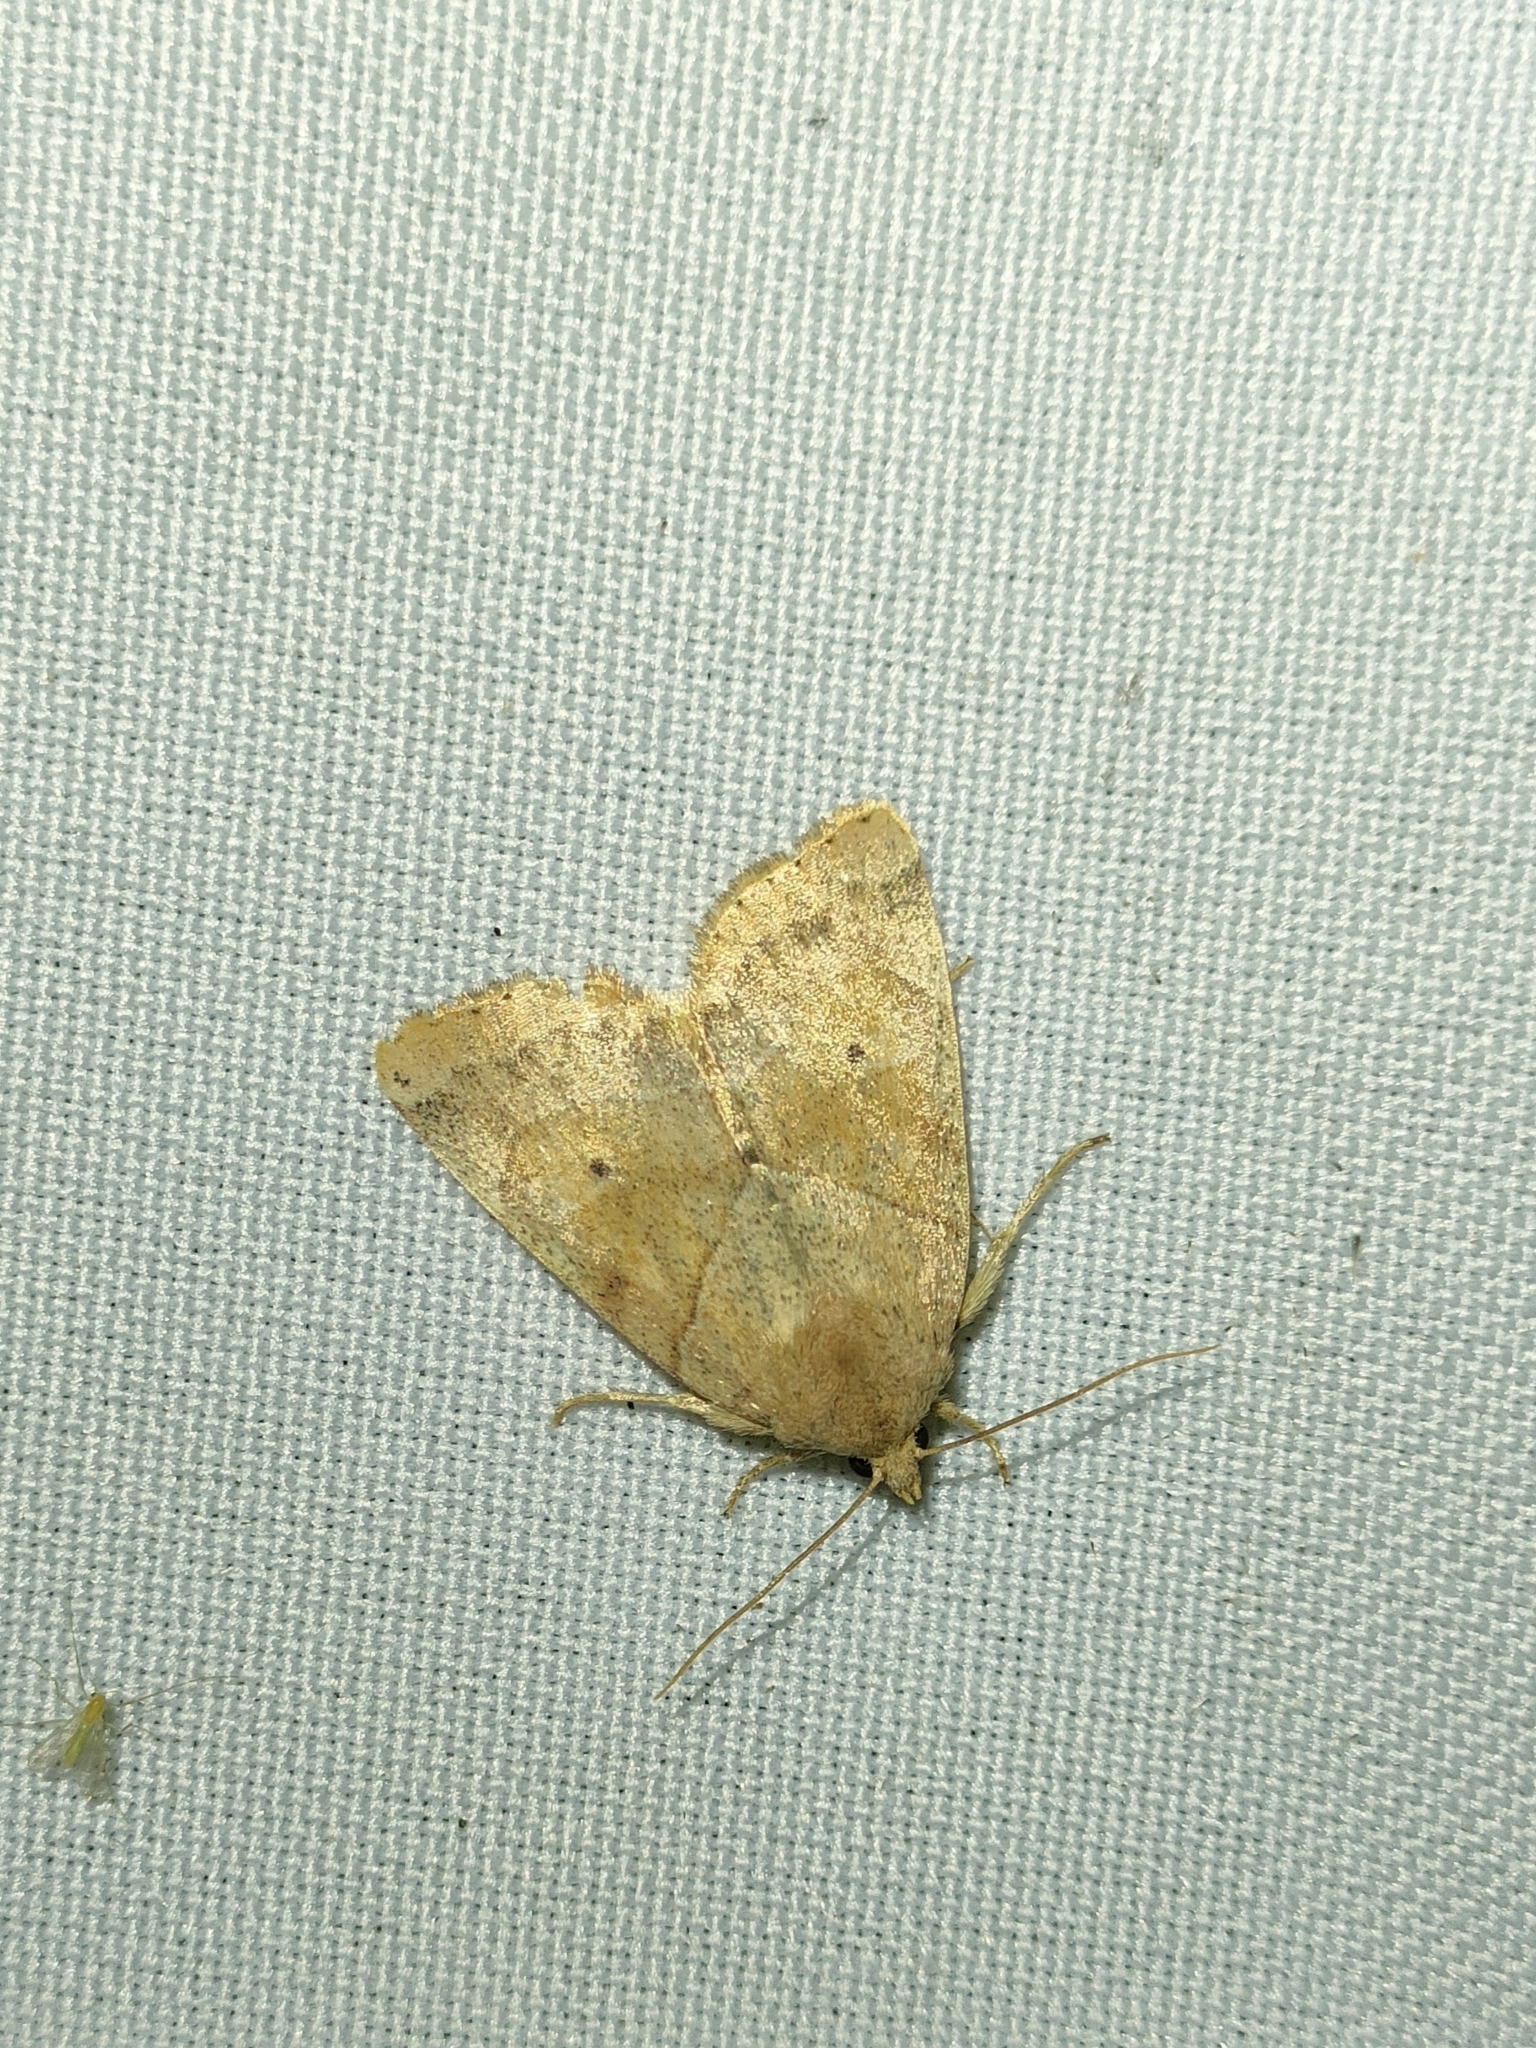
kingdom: Animalia
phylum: Arthropoda
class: Insecta
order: Lepidoptera
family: Noctuidae
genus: Cosmia
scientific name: Cosmia trapezina
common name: Dun-bar
